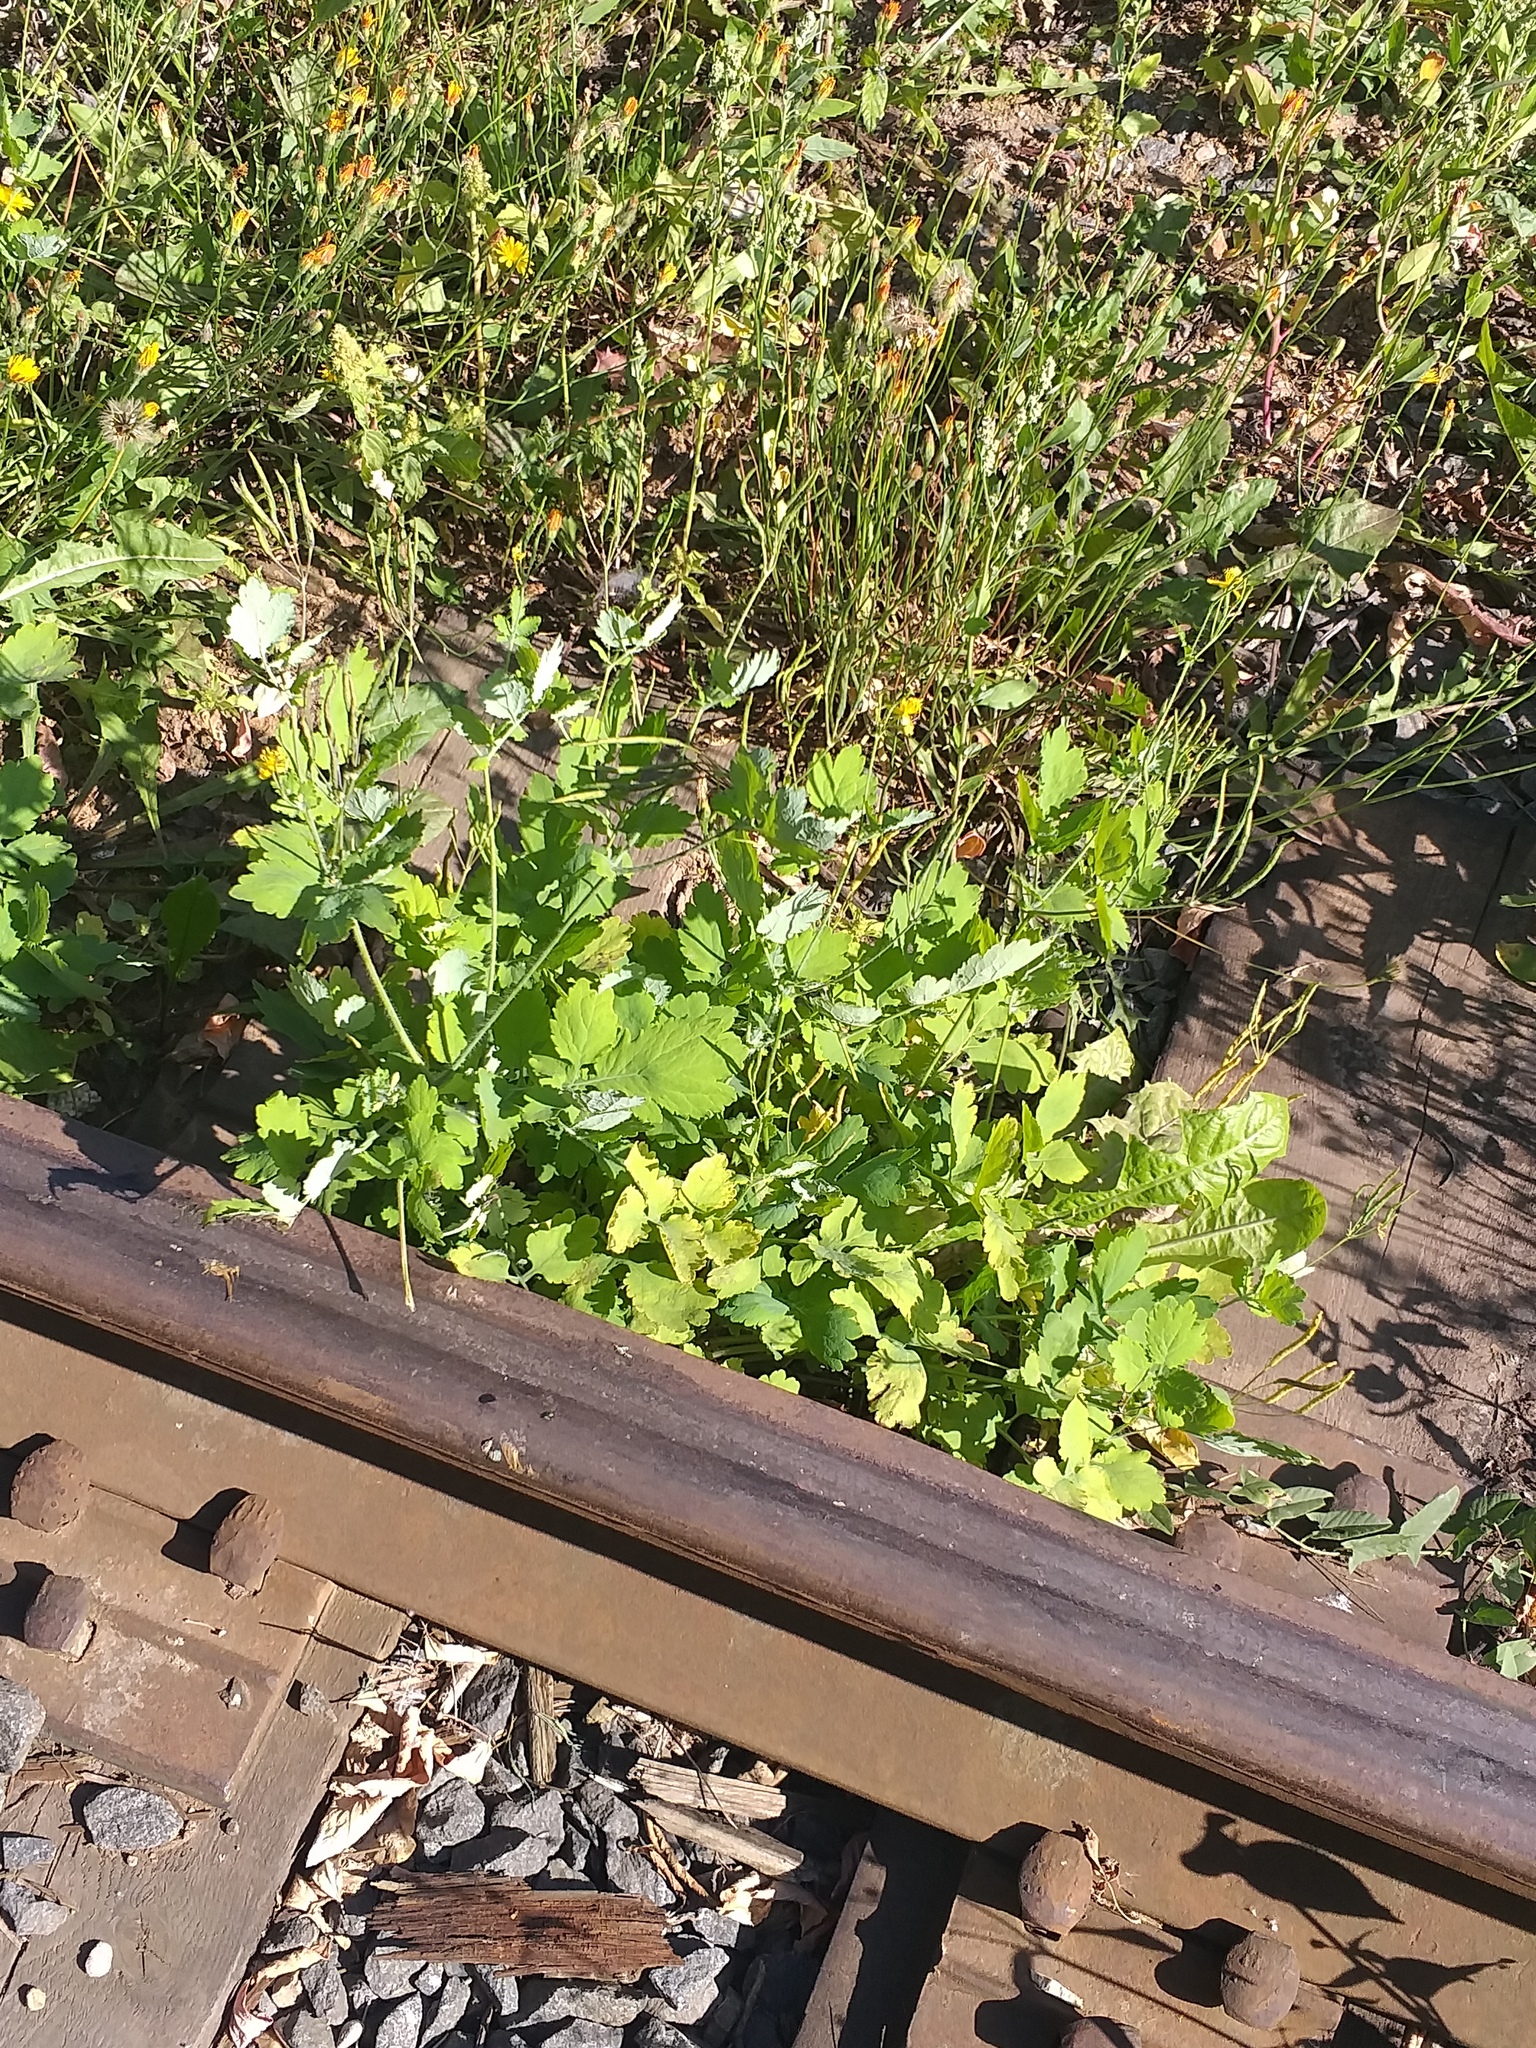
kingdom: Plantae
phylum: Tracheophyta
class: Magnoliopsida
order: Ranunculales
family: Papaveraceae
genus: Chelidonium
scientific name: Chelidonium majus
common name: Greater celandine
